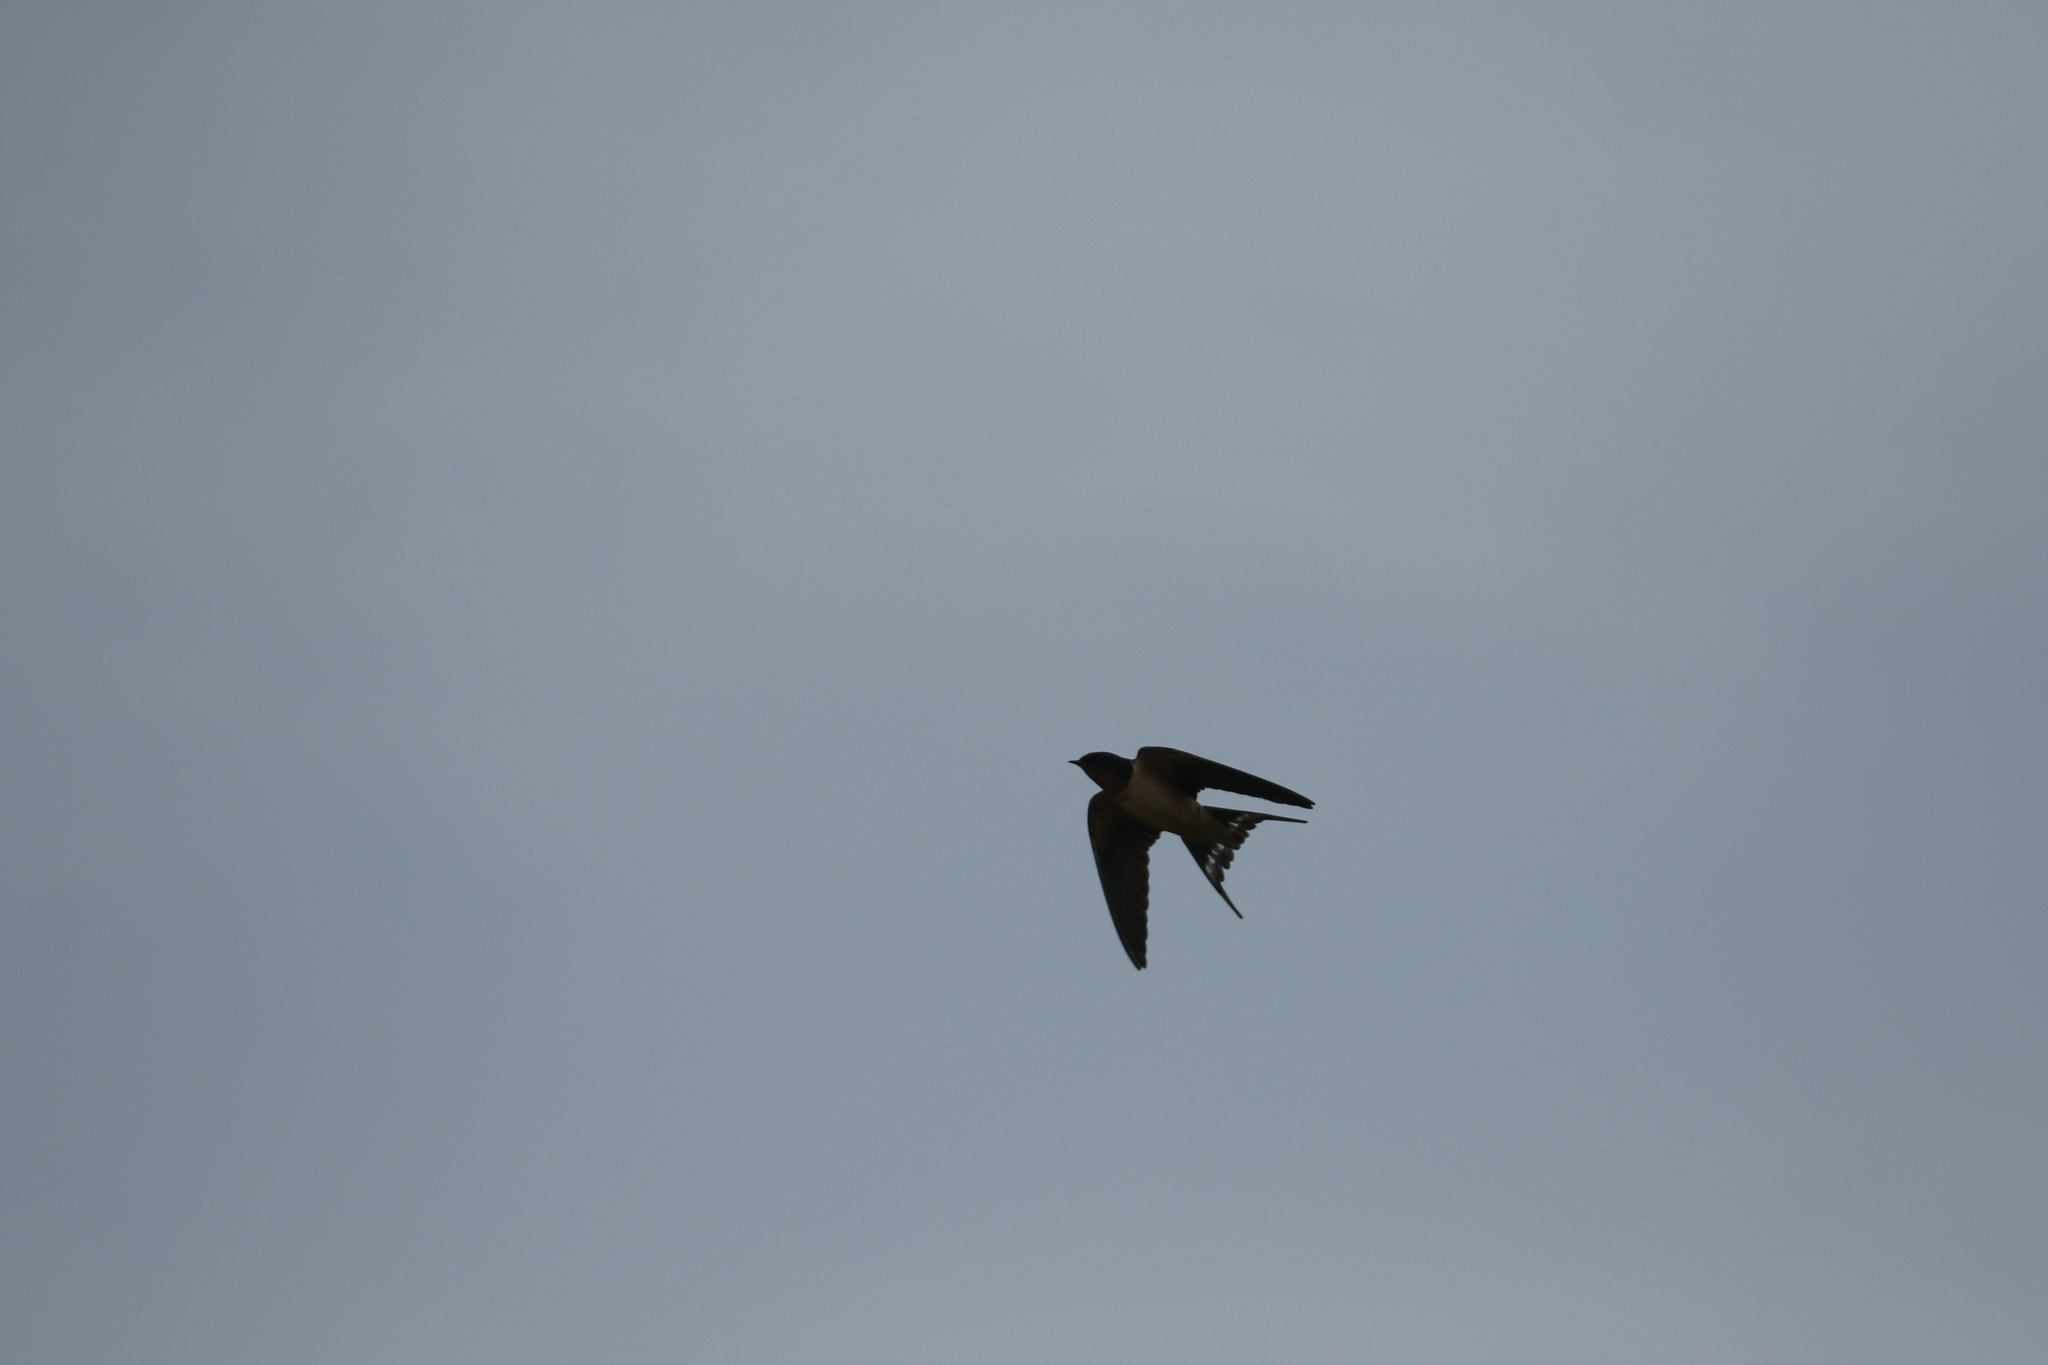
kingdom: Animalia
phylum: Chordata
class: Aves
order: Passeriformes
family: Hirundinidae
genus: Hirundo
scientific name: Hirundo rustica
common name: Barn swallow
